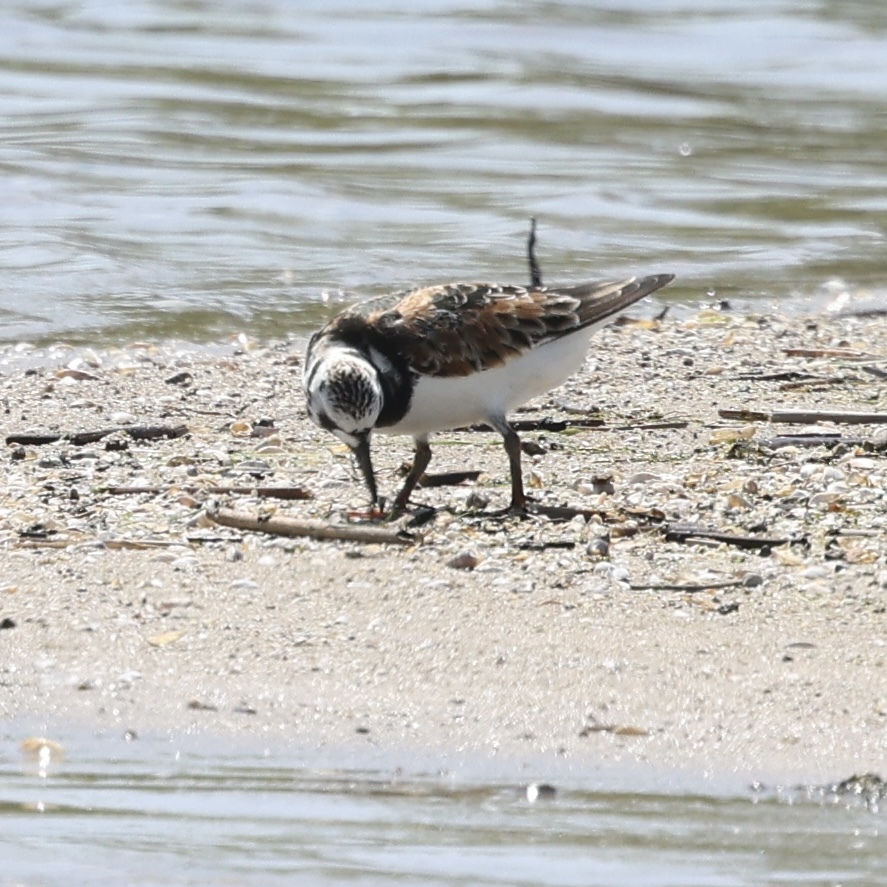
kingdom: Animalia
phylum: Chordata
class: Aves
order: Charadriiformes
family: Scolopacidae
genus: Arenaria
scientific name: Arenaria interpres
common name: Ruddy turnstone
